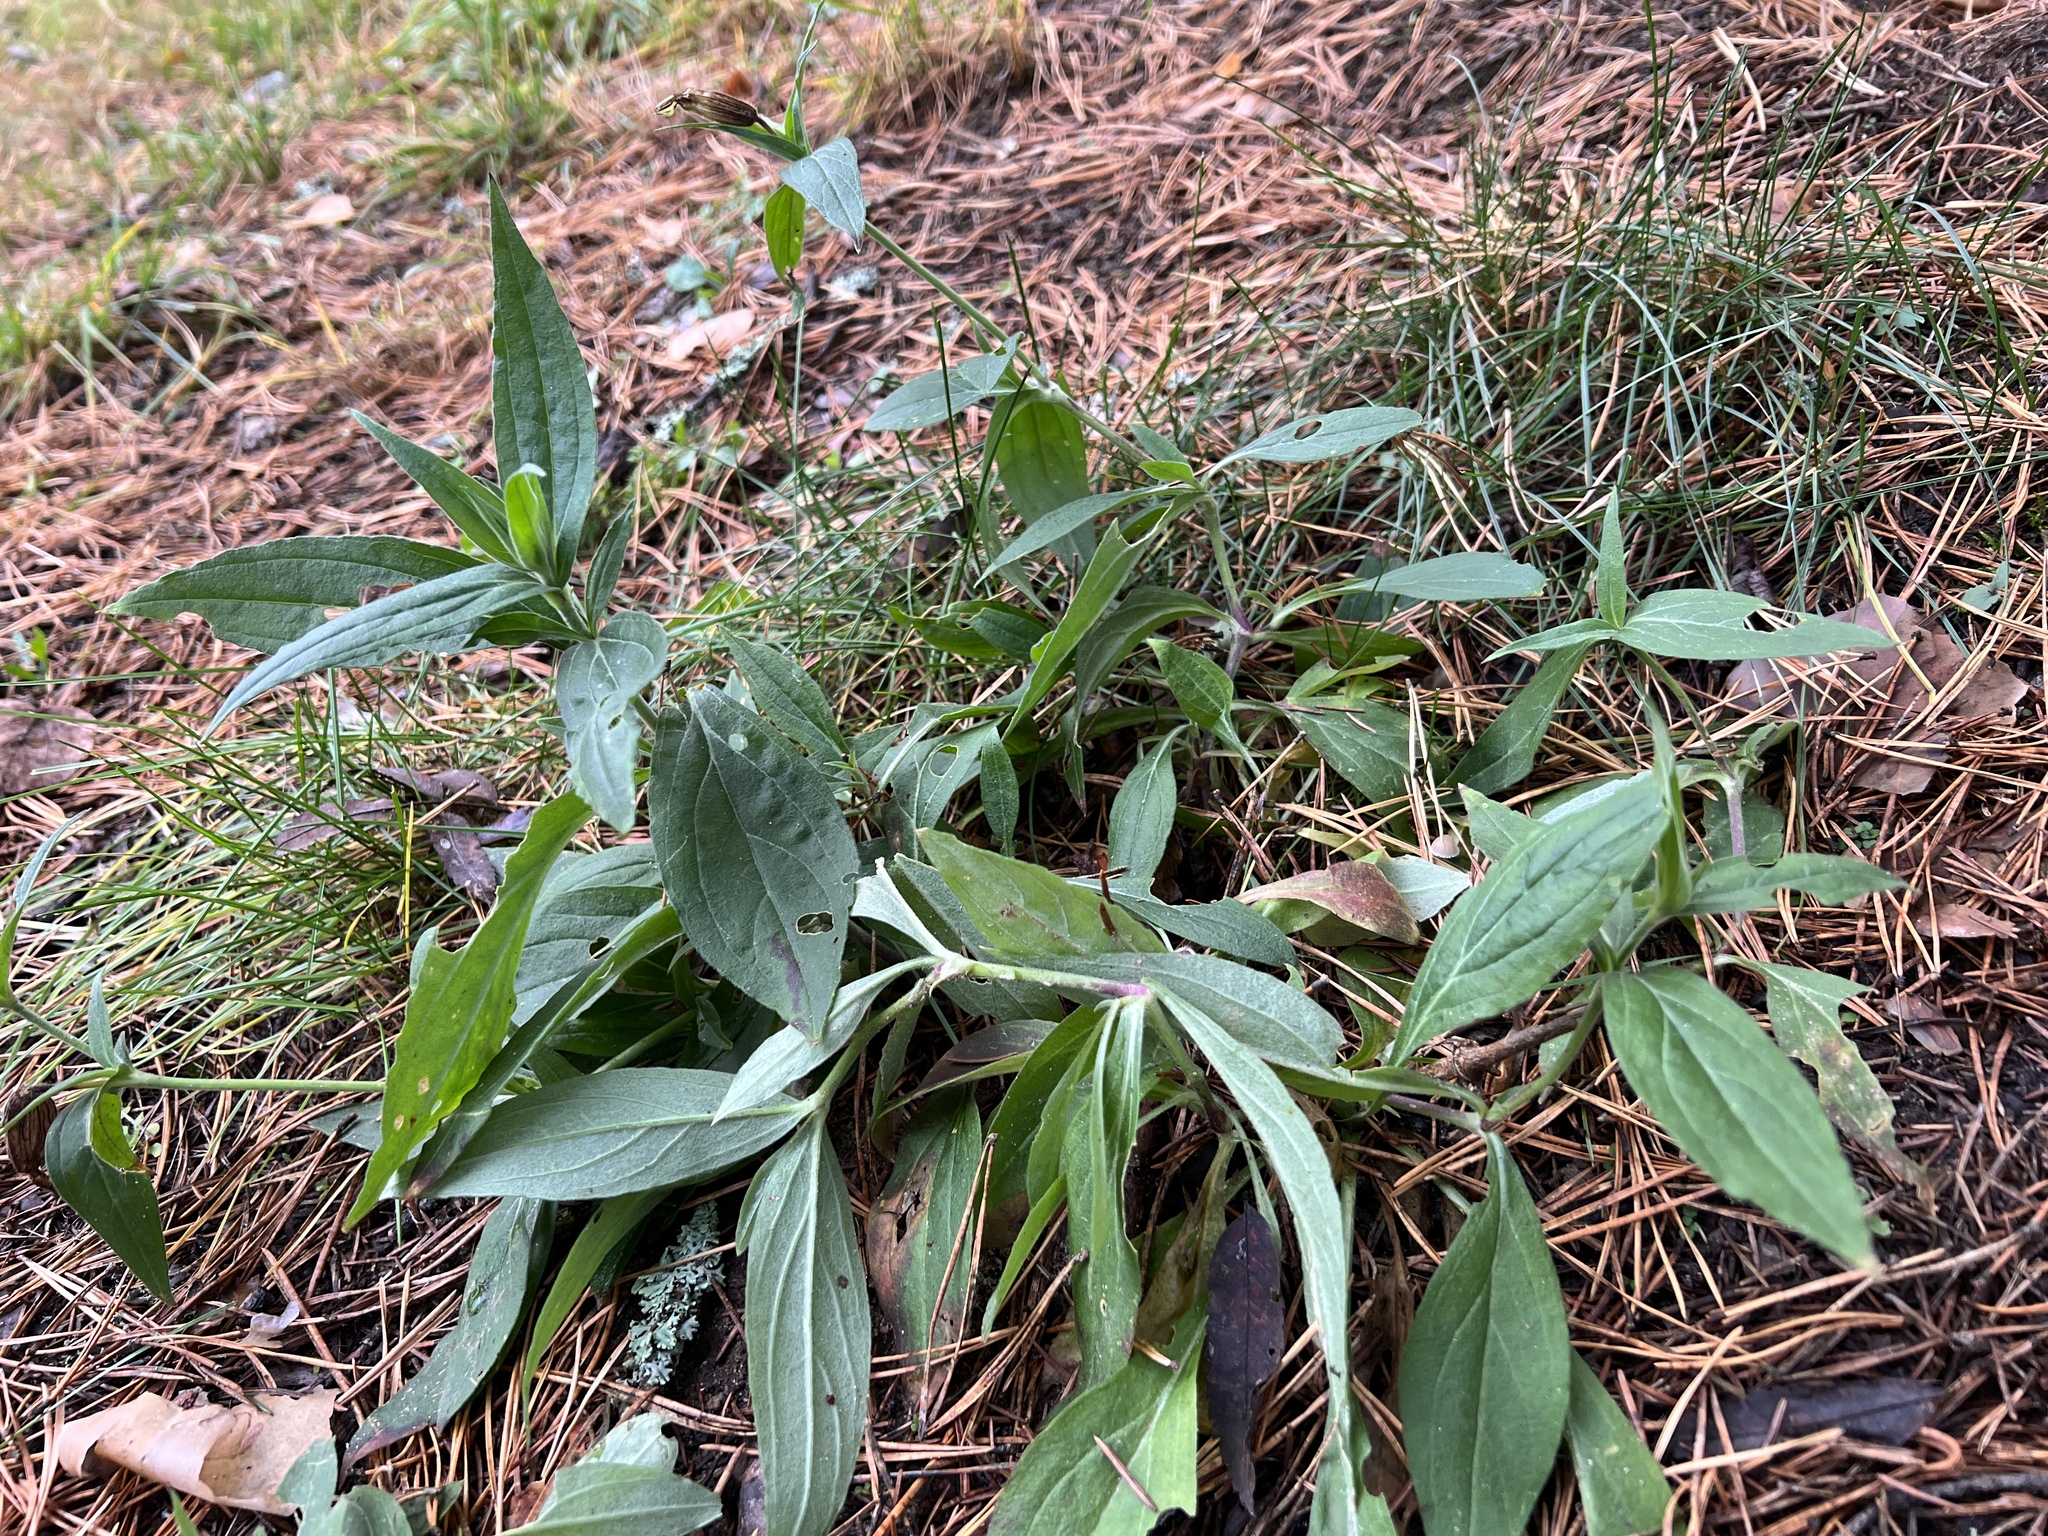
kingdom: Plantae
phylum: Tracheophyta
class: Magnoliopsida
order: Boraginales
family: Boraginaceae
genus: Lithospermum
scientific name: Lithospermum officinale
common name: Common gromwell
